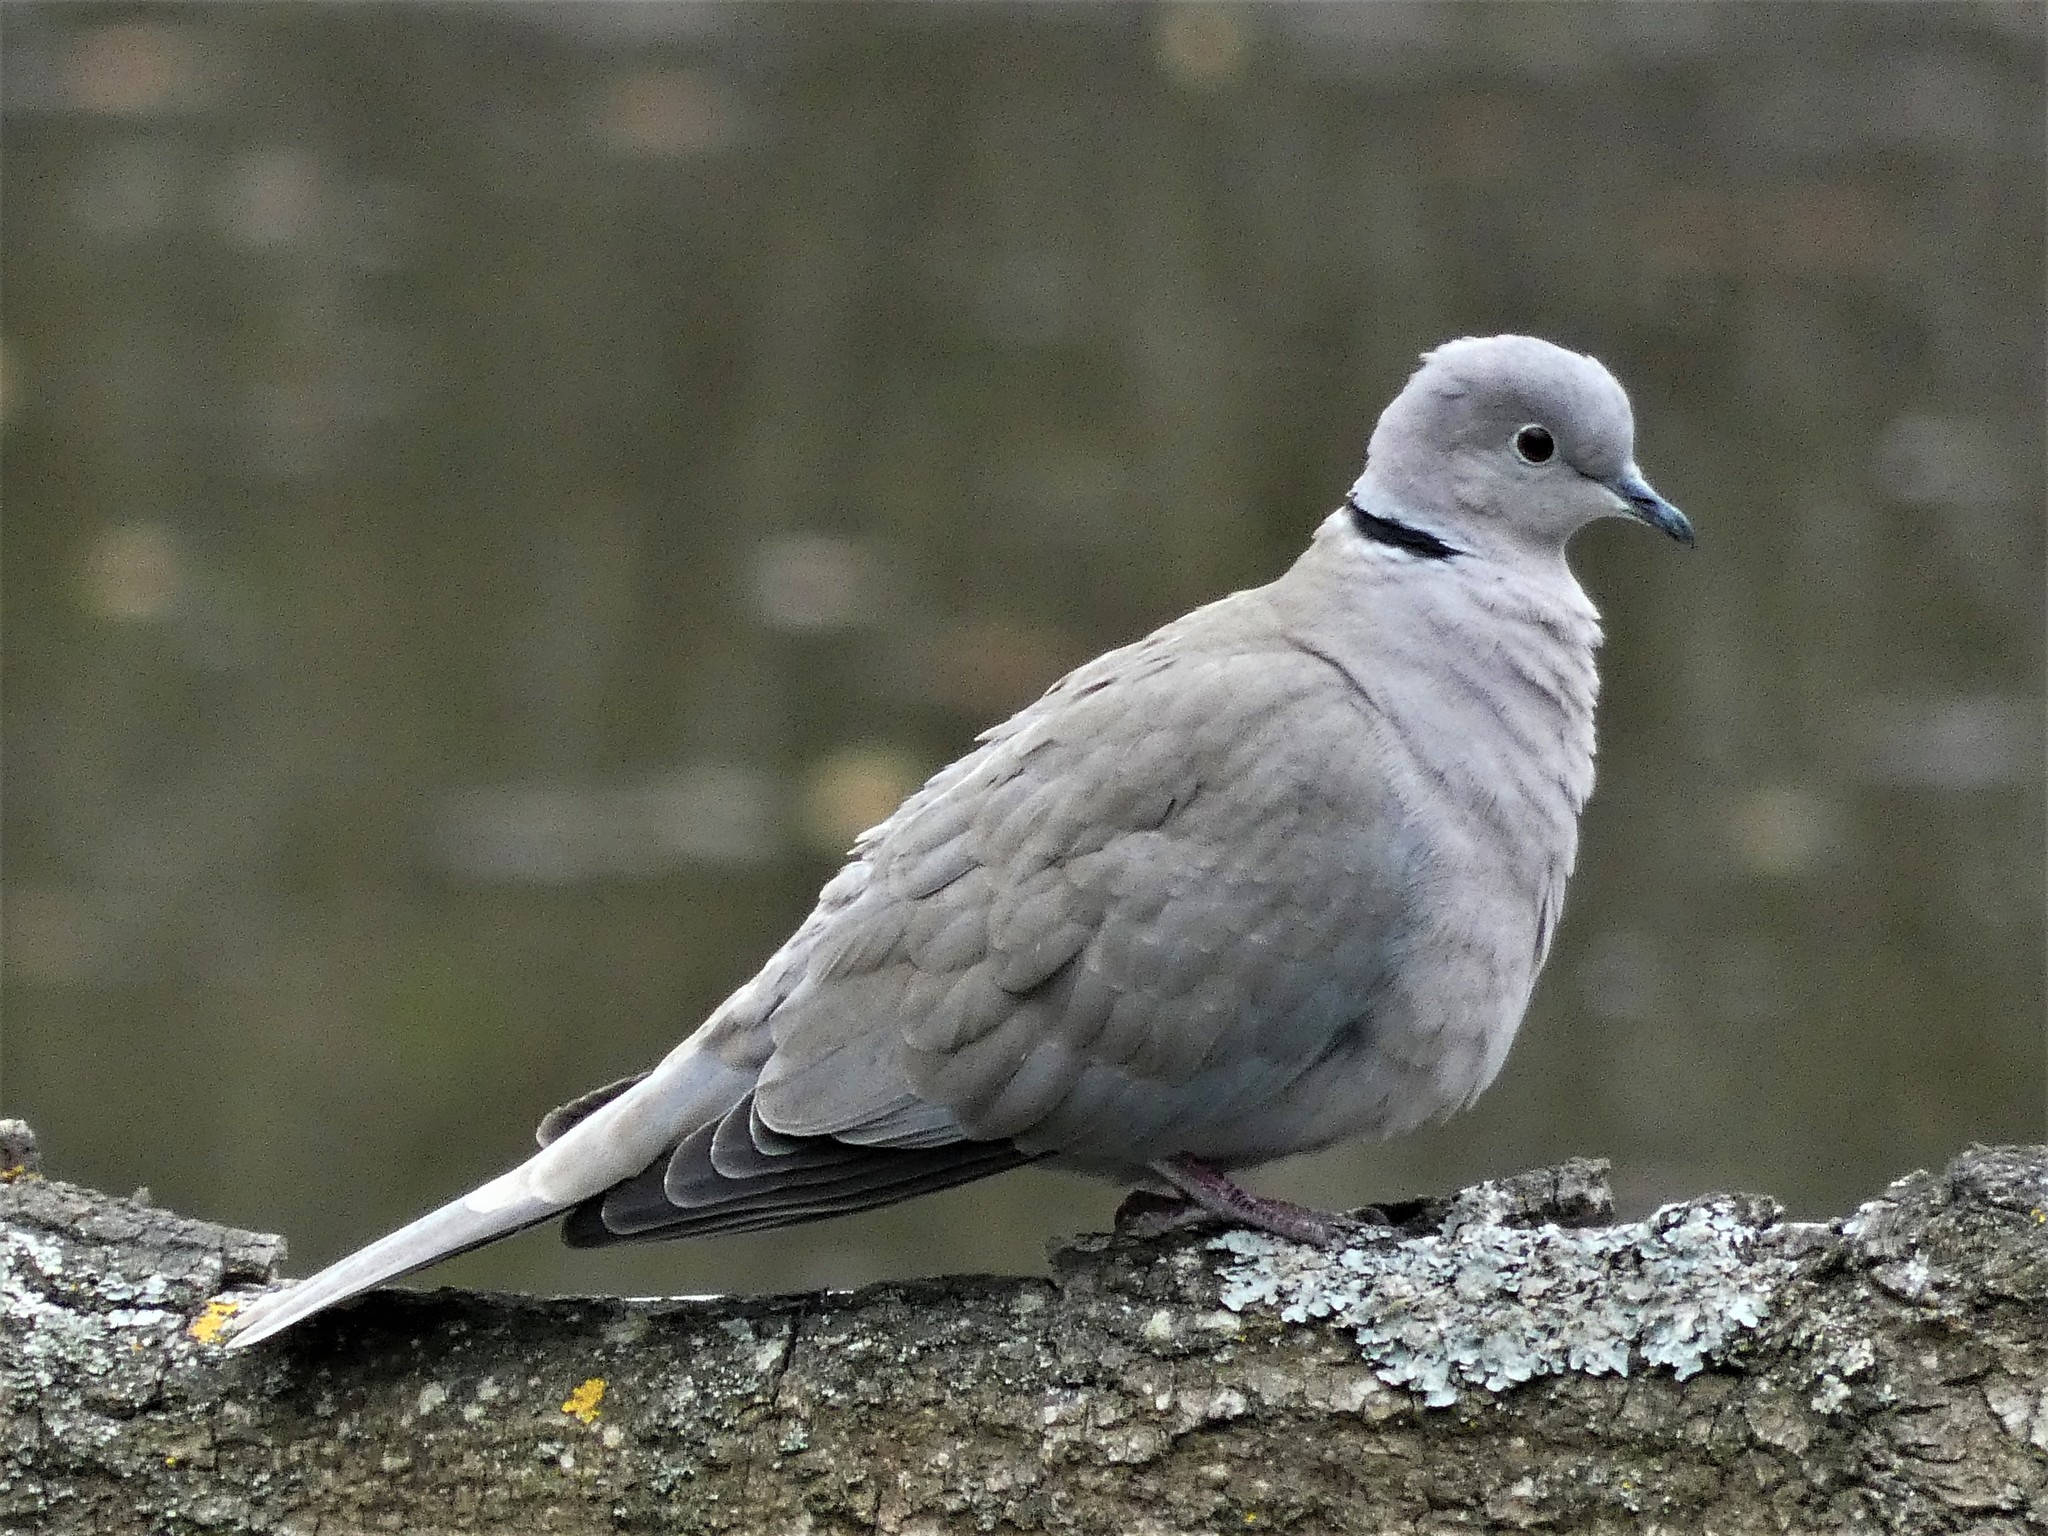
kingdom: Animalia
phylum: Chordata
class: Aves
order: Columbiformes
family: Columbidae
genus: Streptopelia
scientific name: Streptopelia decaocto
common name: Eurasian collared dove
